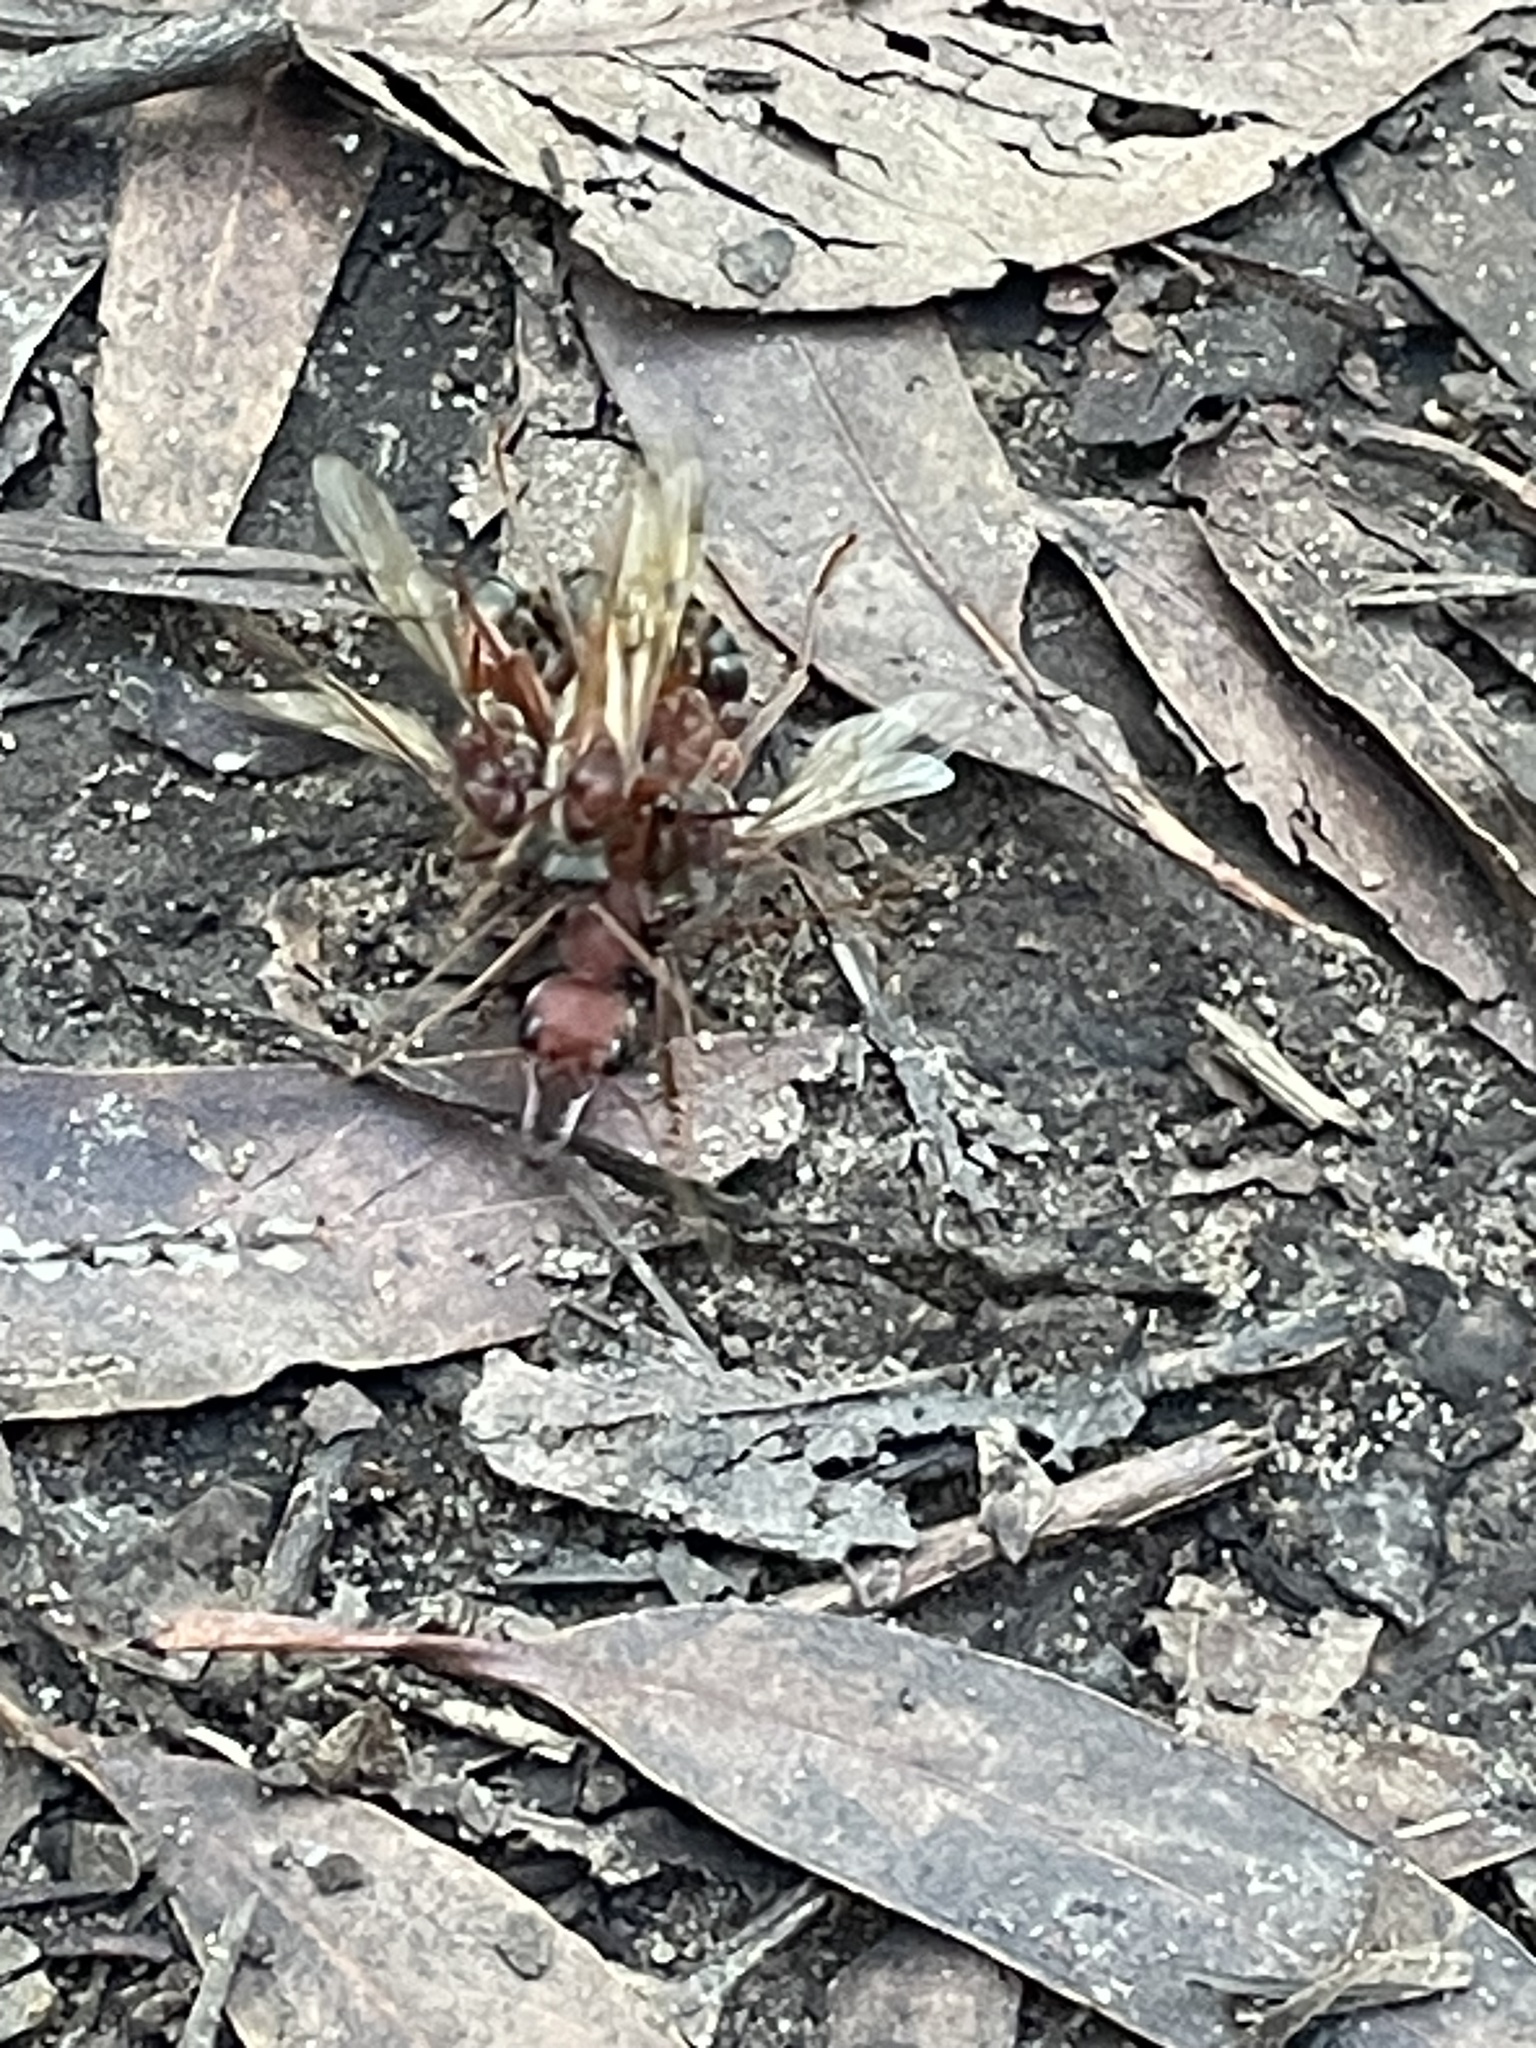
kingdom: Animalia
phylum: Arthropoda
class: Insecta
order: Hymenoptera
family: Formicidae
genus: Myrmecia
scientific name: Myrmecia brevinoda
